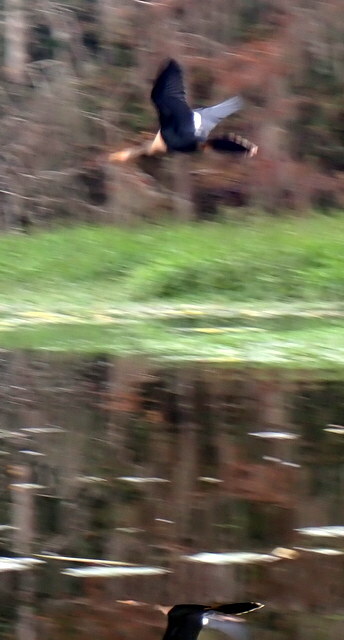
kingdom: Animalia
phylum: Chordata
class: Aves
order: Suliformes
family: Anhingidae
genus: Anhinga
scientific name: Anhinga anhinga
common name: Anhinga
